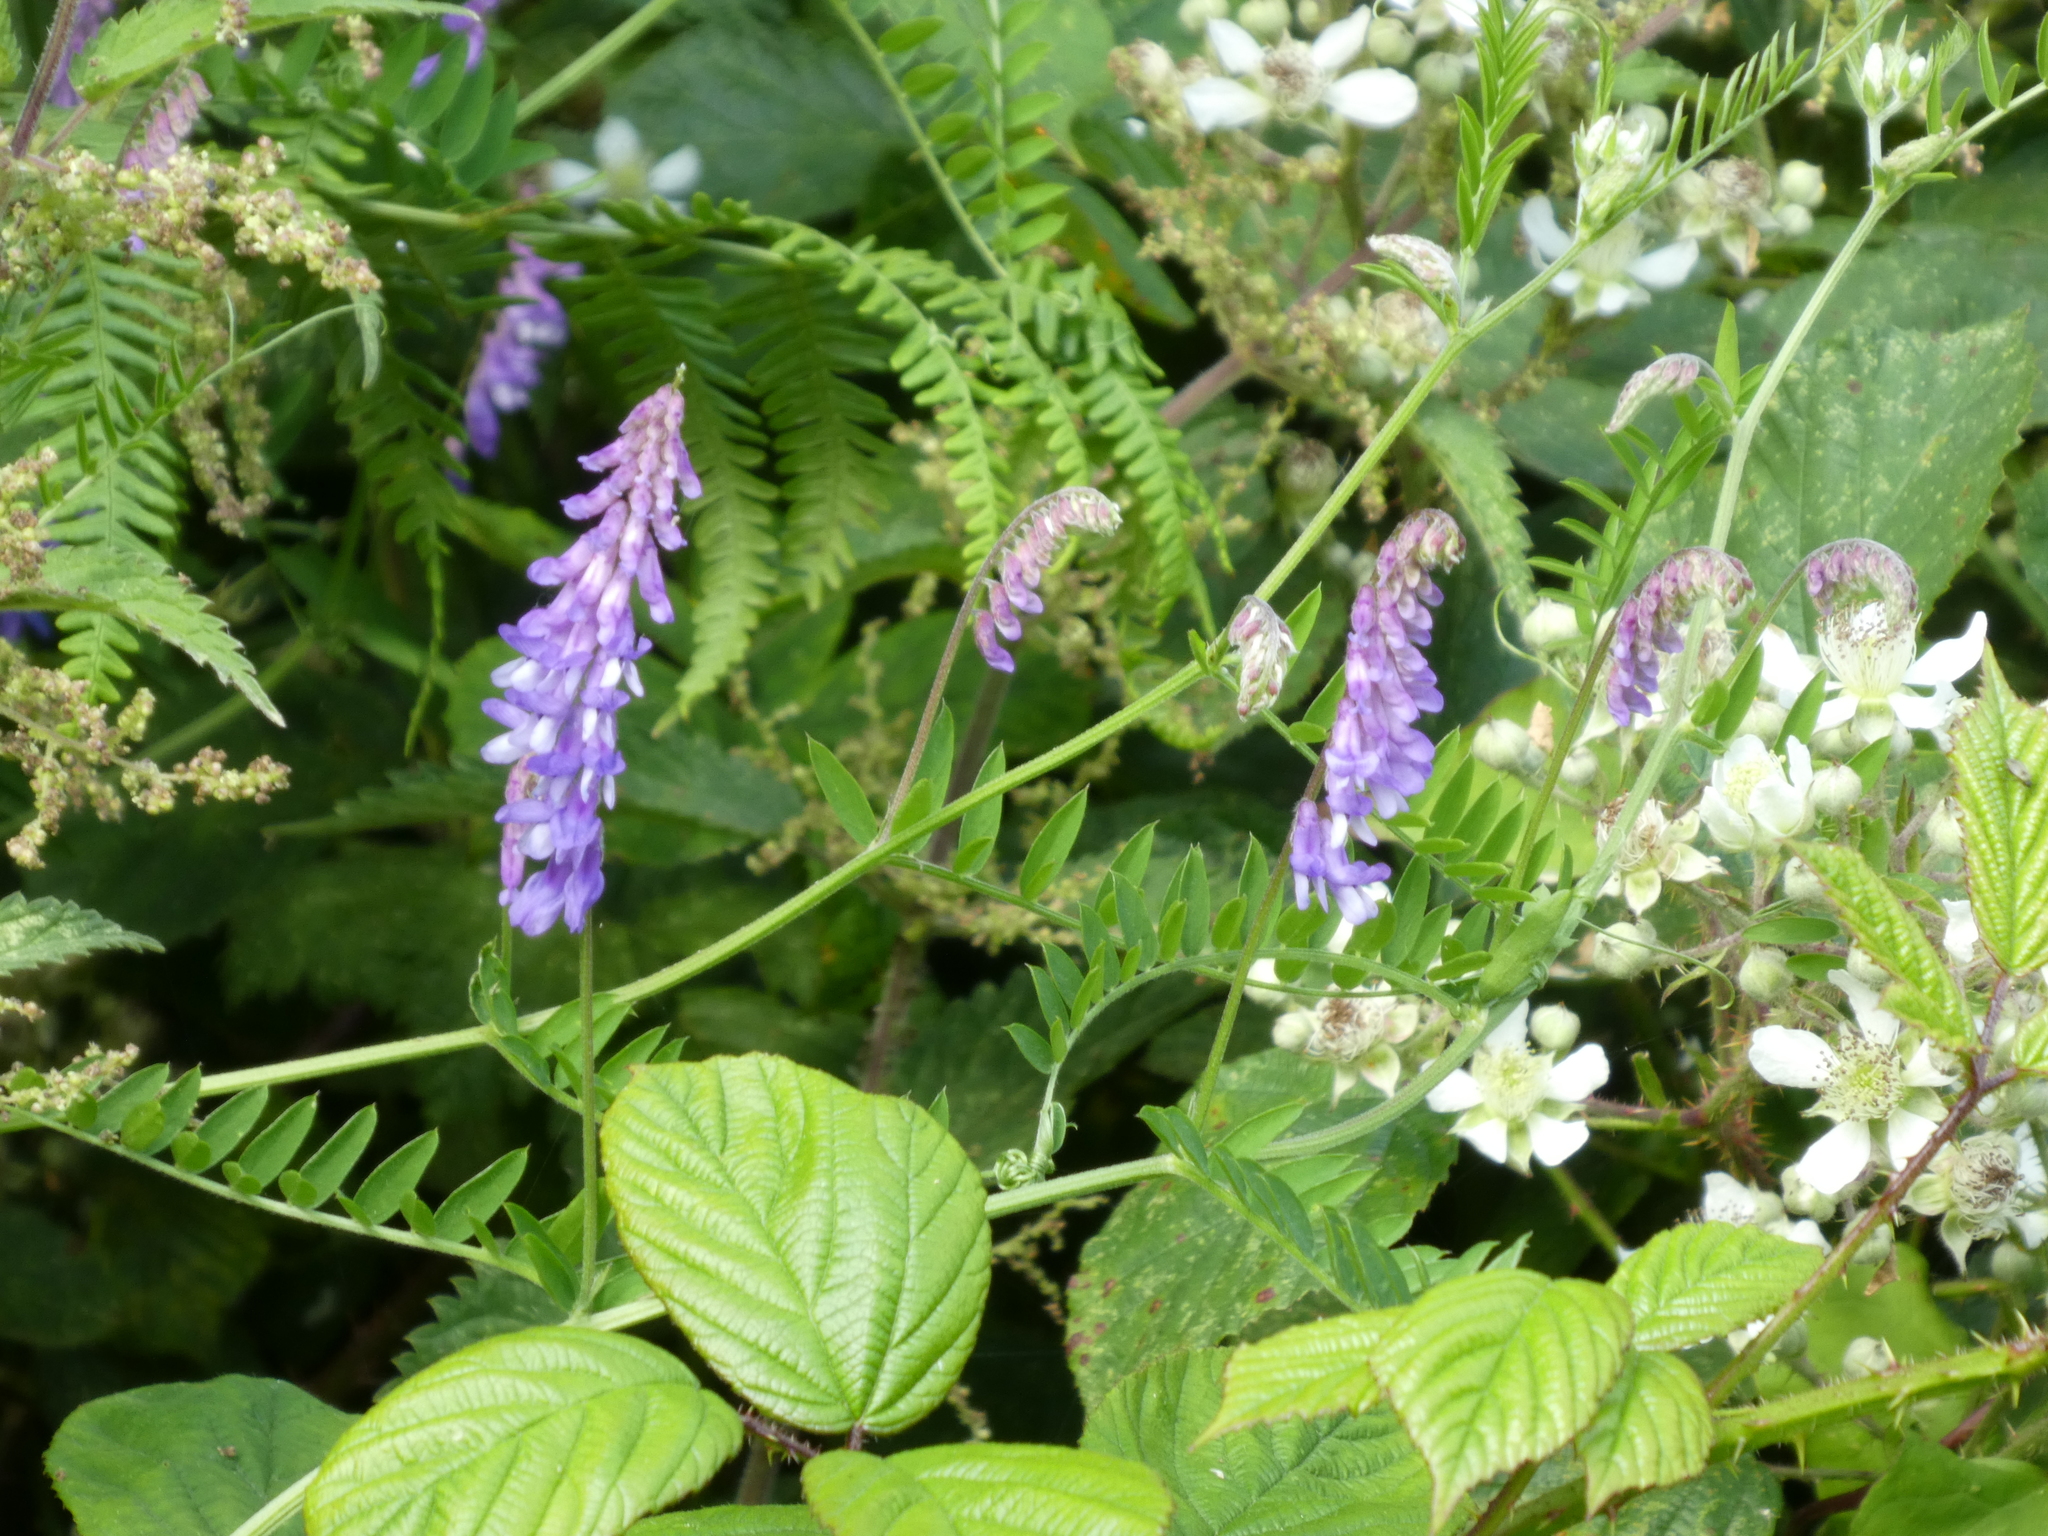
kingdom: Plantae
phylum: Tracheophyta
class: Magnoliopsida
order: Fabales
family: Fabaceae
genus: Vicia
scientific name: Vicia cracca
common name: Bird vetch
